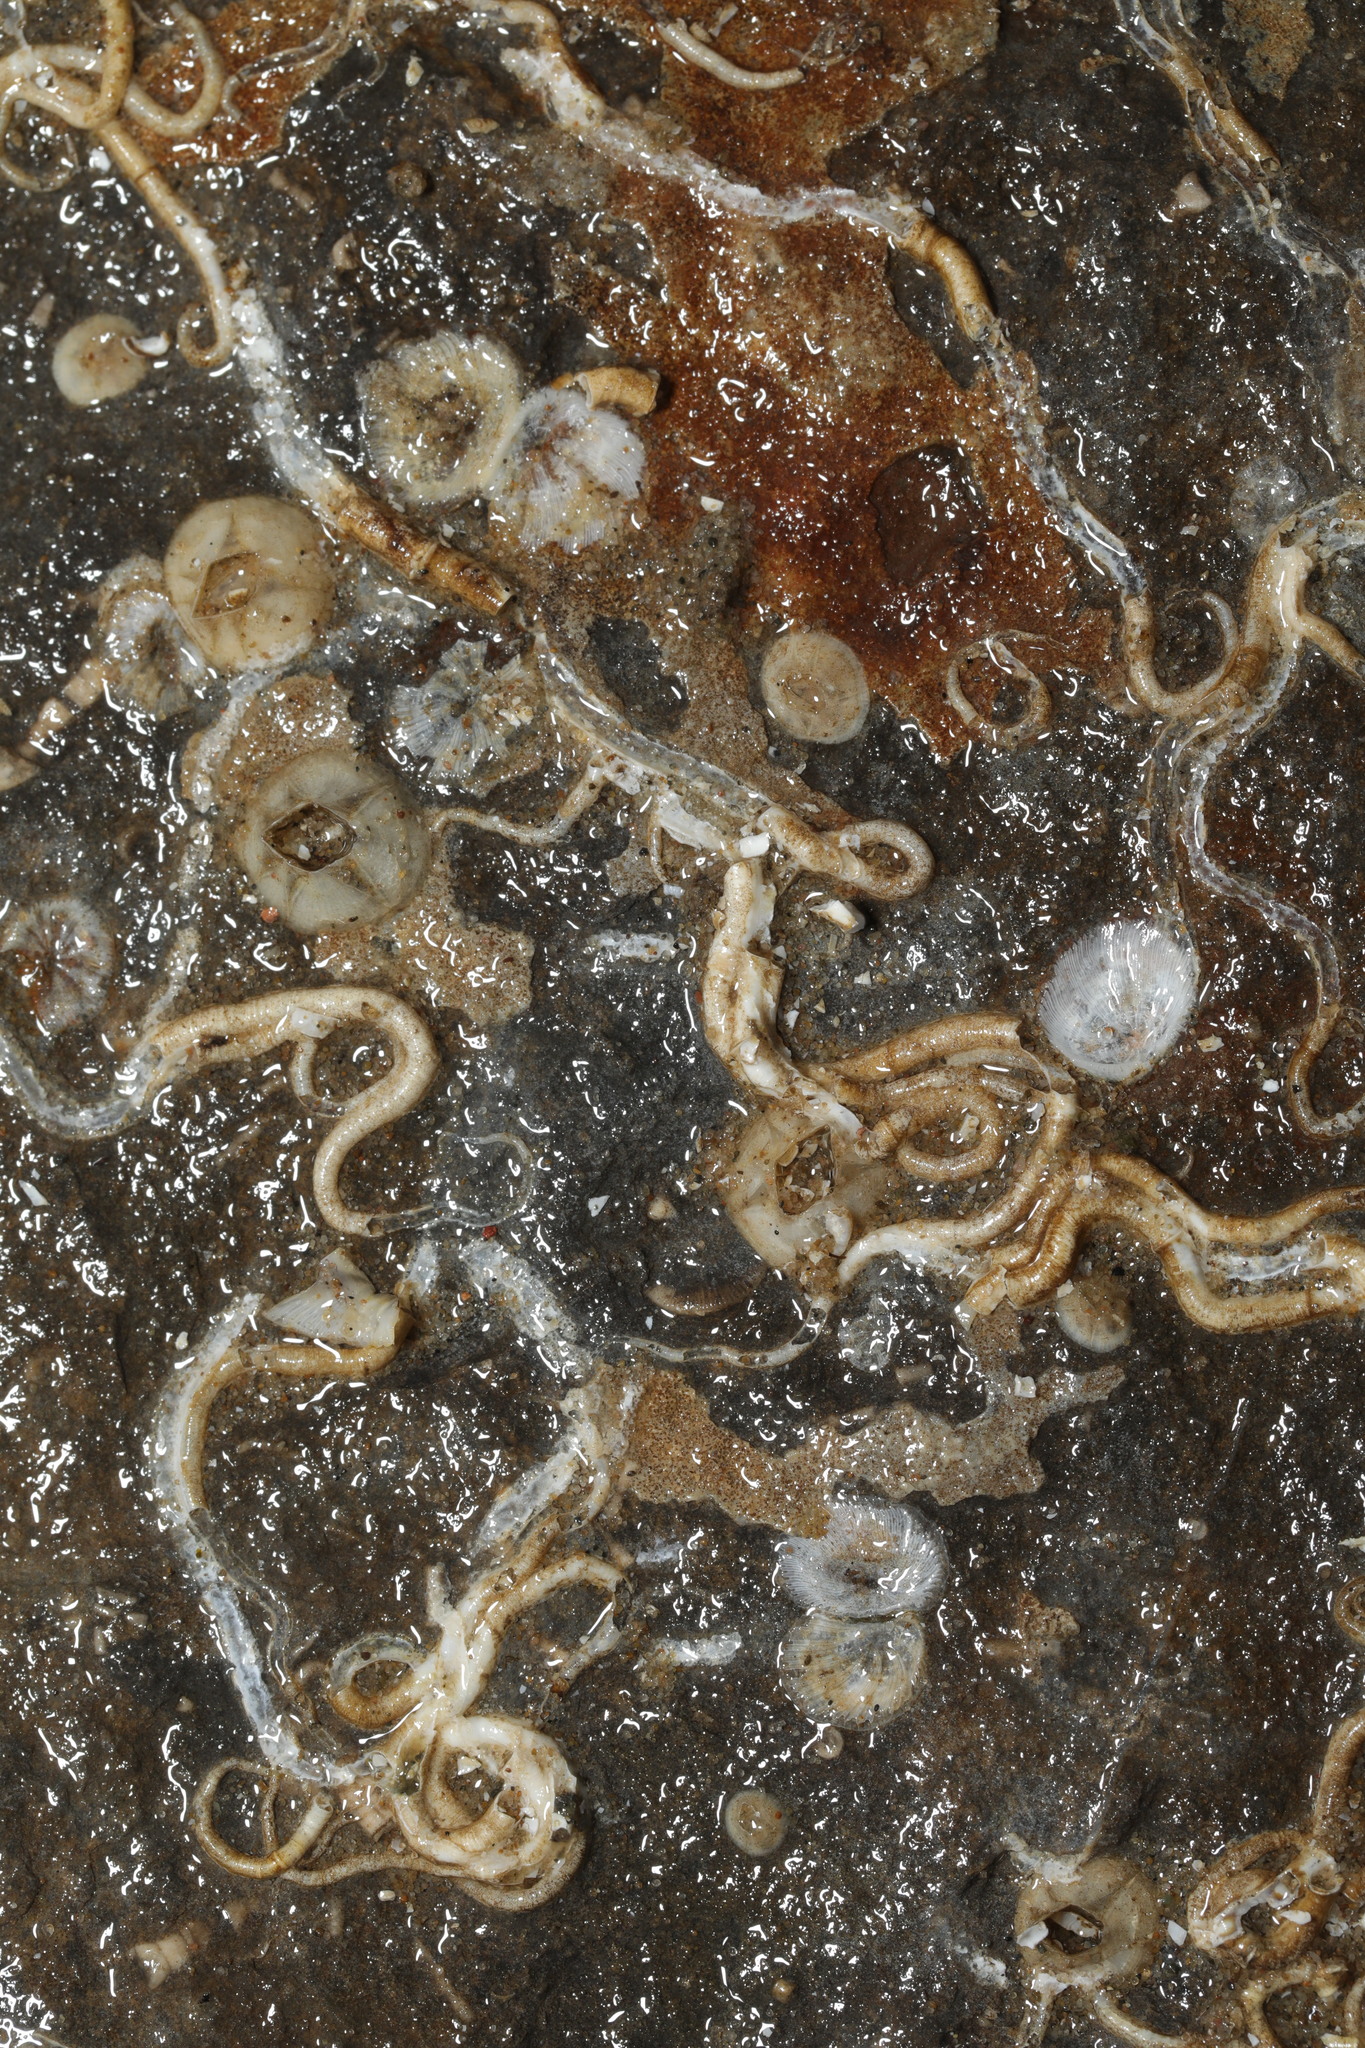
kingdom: Animalia
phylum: Arthropoda
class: Maxillopoda
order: Sessilia
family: Balanidae
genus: Amphibalanus
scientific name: Amphibalanus improvisus
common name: Bay barnacle
